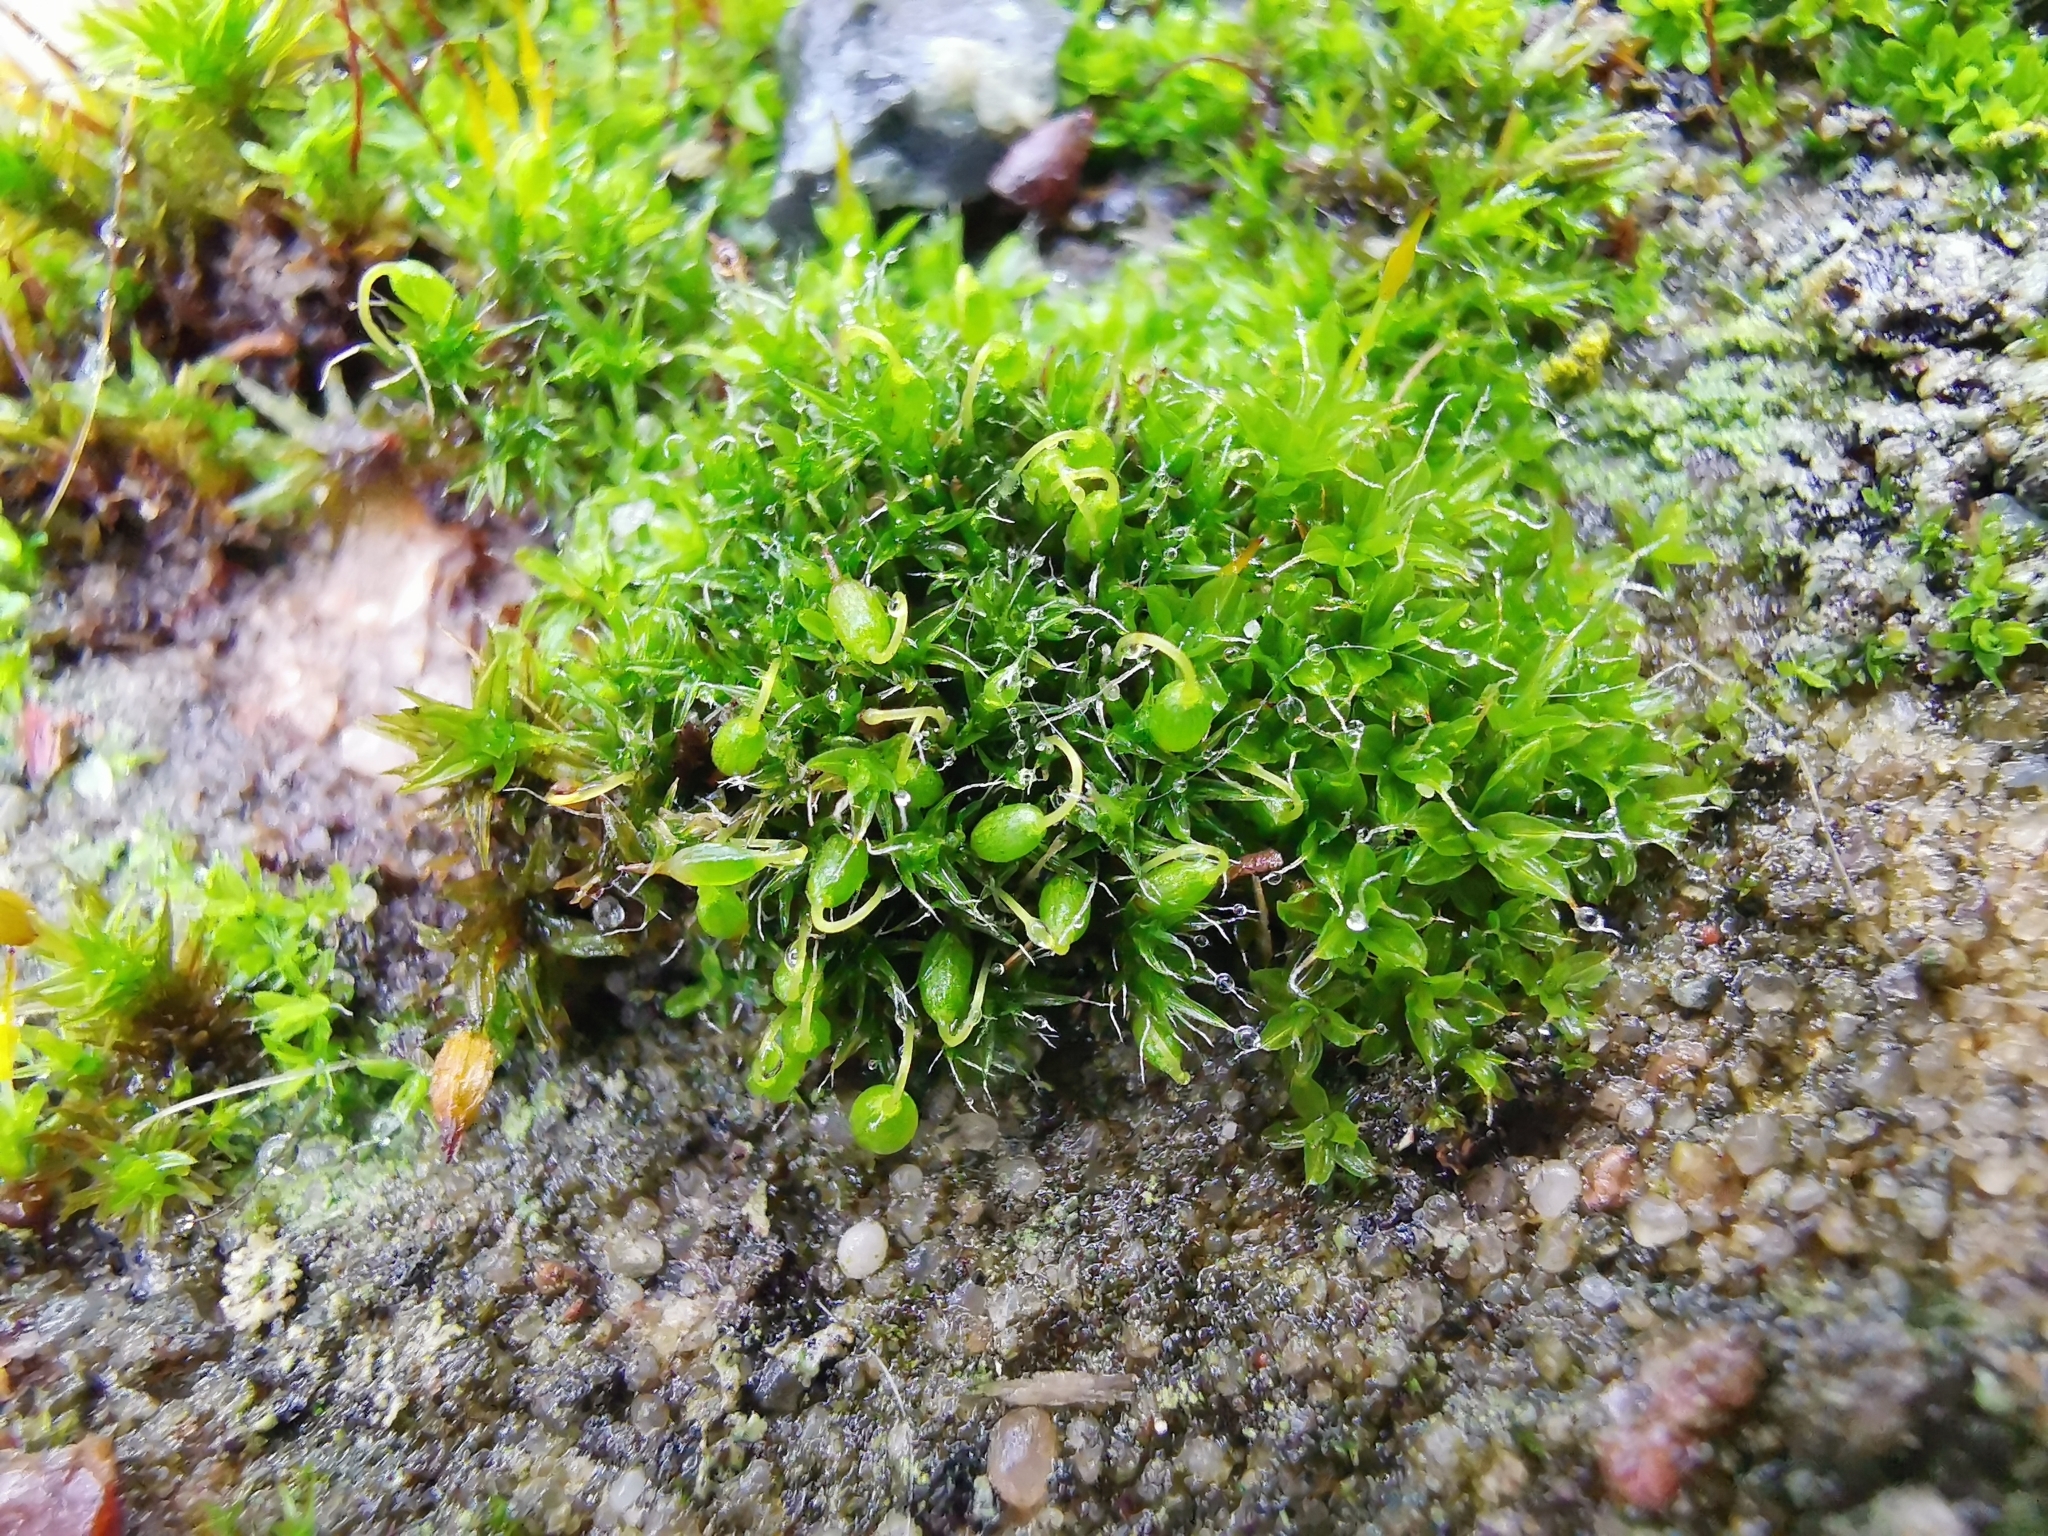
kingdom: Plantae
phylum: Bryophyta
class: Bryopsida
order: Grimmiales
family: Grimmiaceae
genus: Grimmia
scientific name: Grimmia pulvinata
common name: Grey-cushioned grimmia
